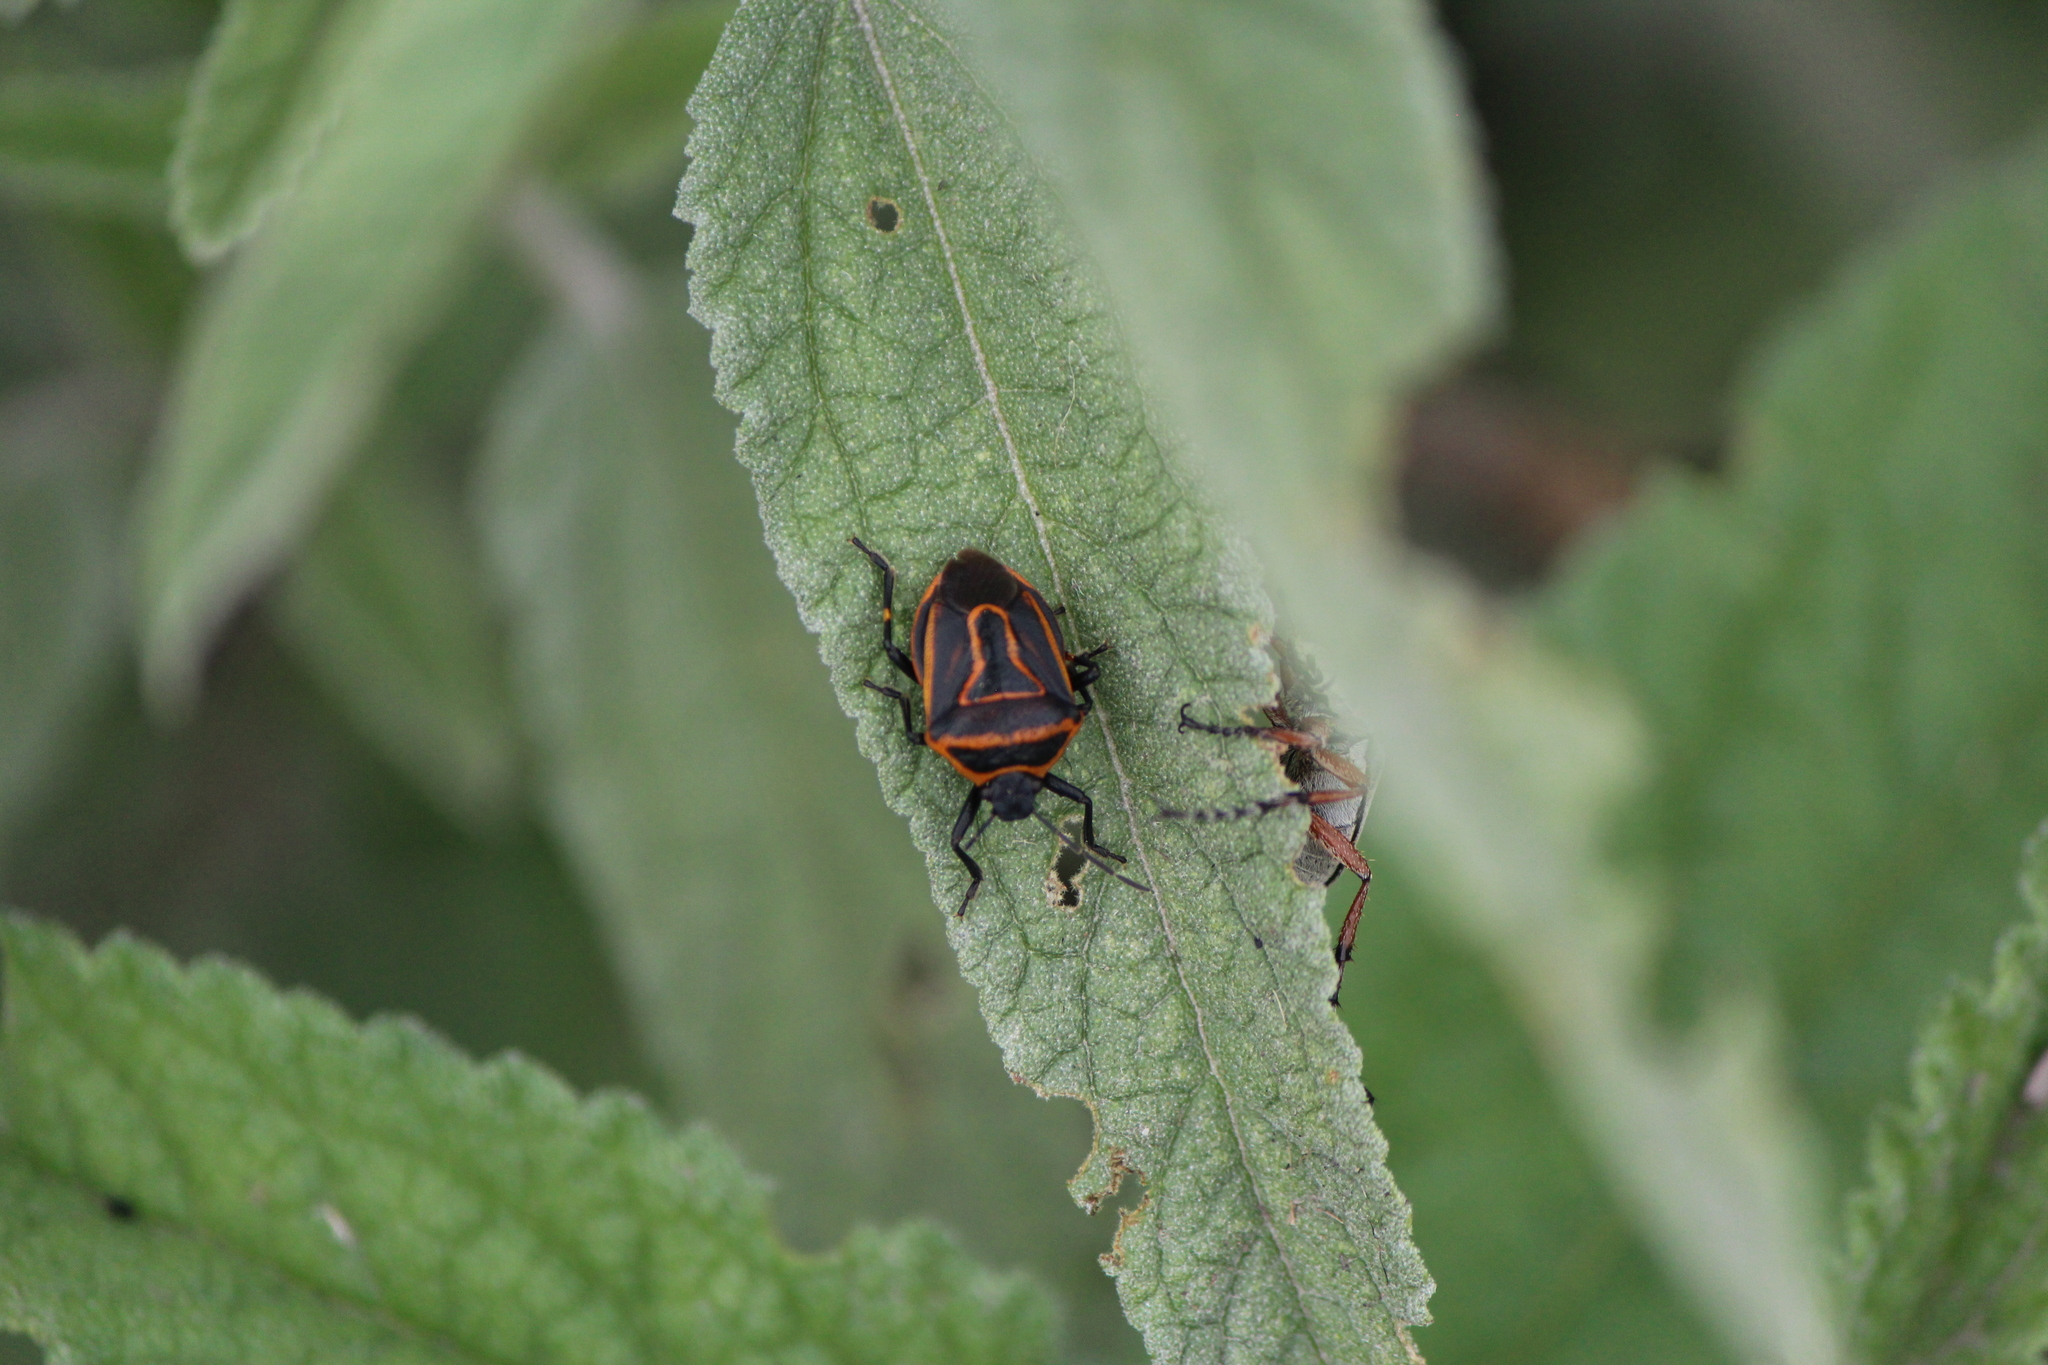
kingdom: Animalia
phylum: Arthropoda
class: Insecta
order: Hemiptera
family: Pentatomidae
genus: Perillus
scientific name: Perillus bioculatus
